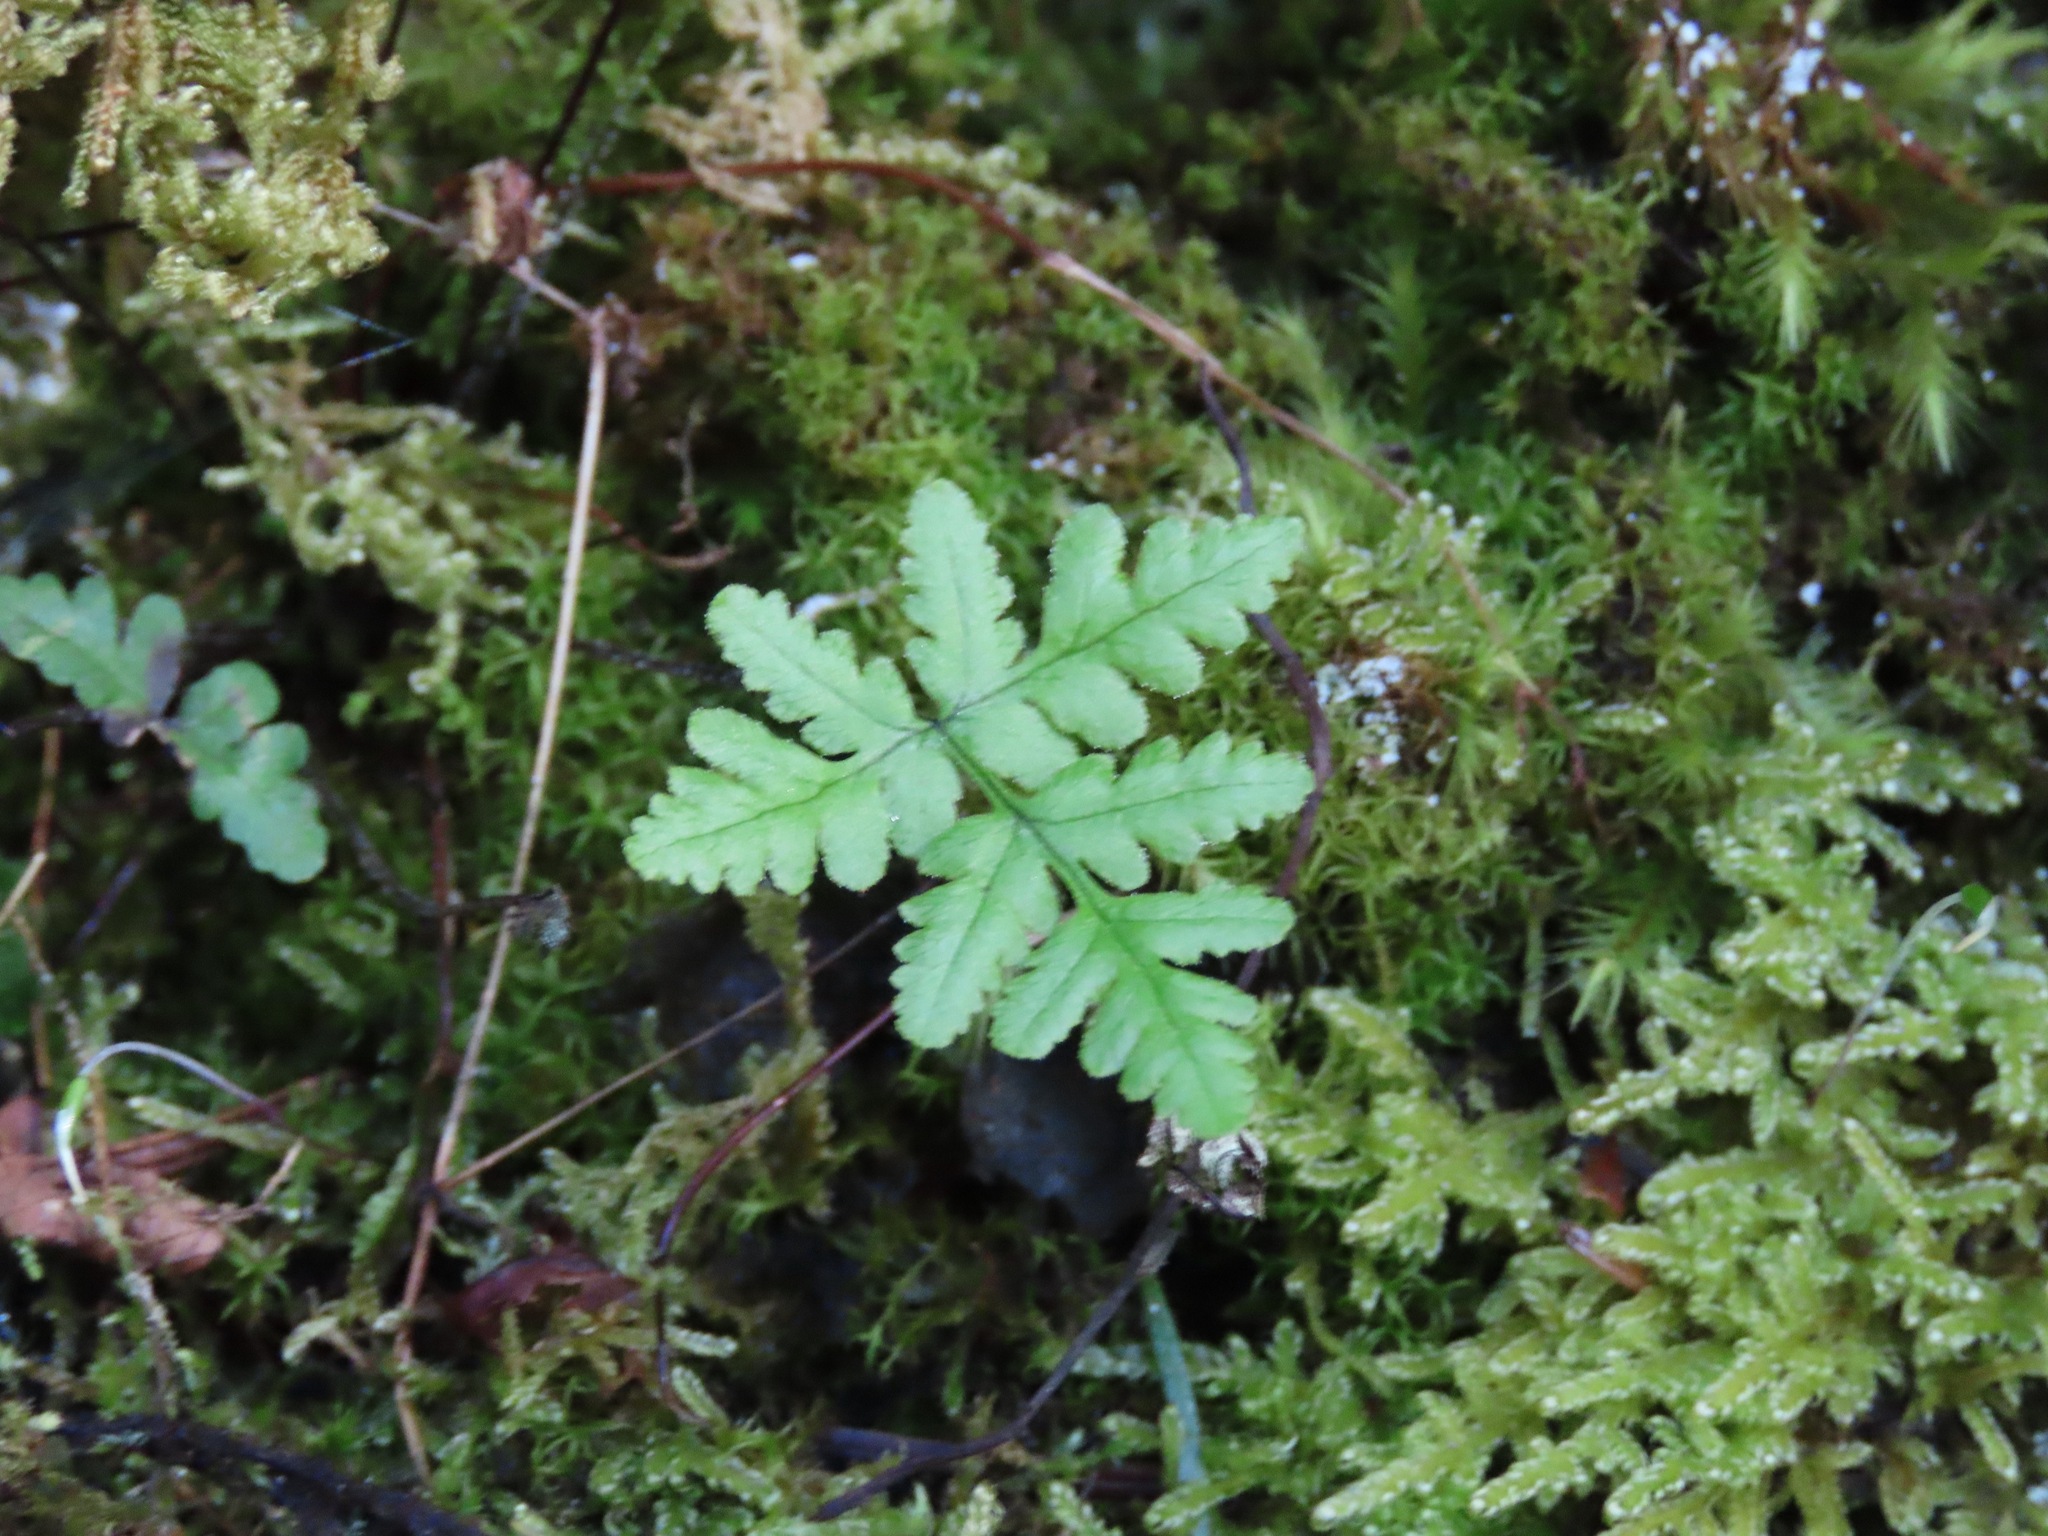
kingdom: Plantae
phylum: Tracheophyta
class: Polypodiopsida
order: Polypodiales
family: Pteridaceae
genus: Pentagramma
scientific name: Pentagramma triangularis
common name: Gold fern
